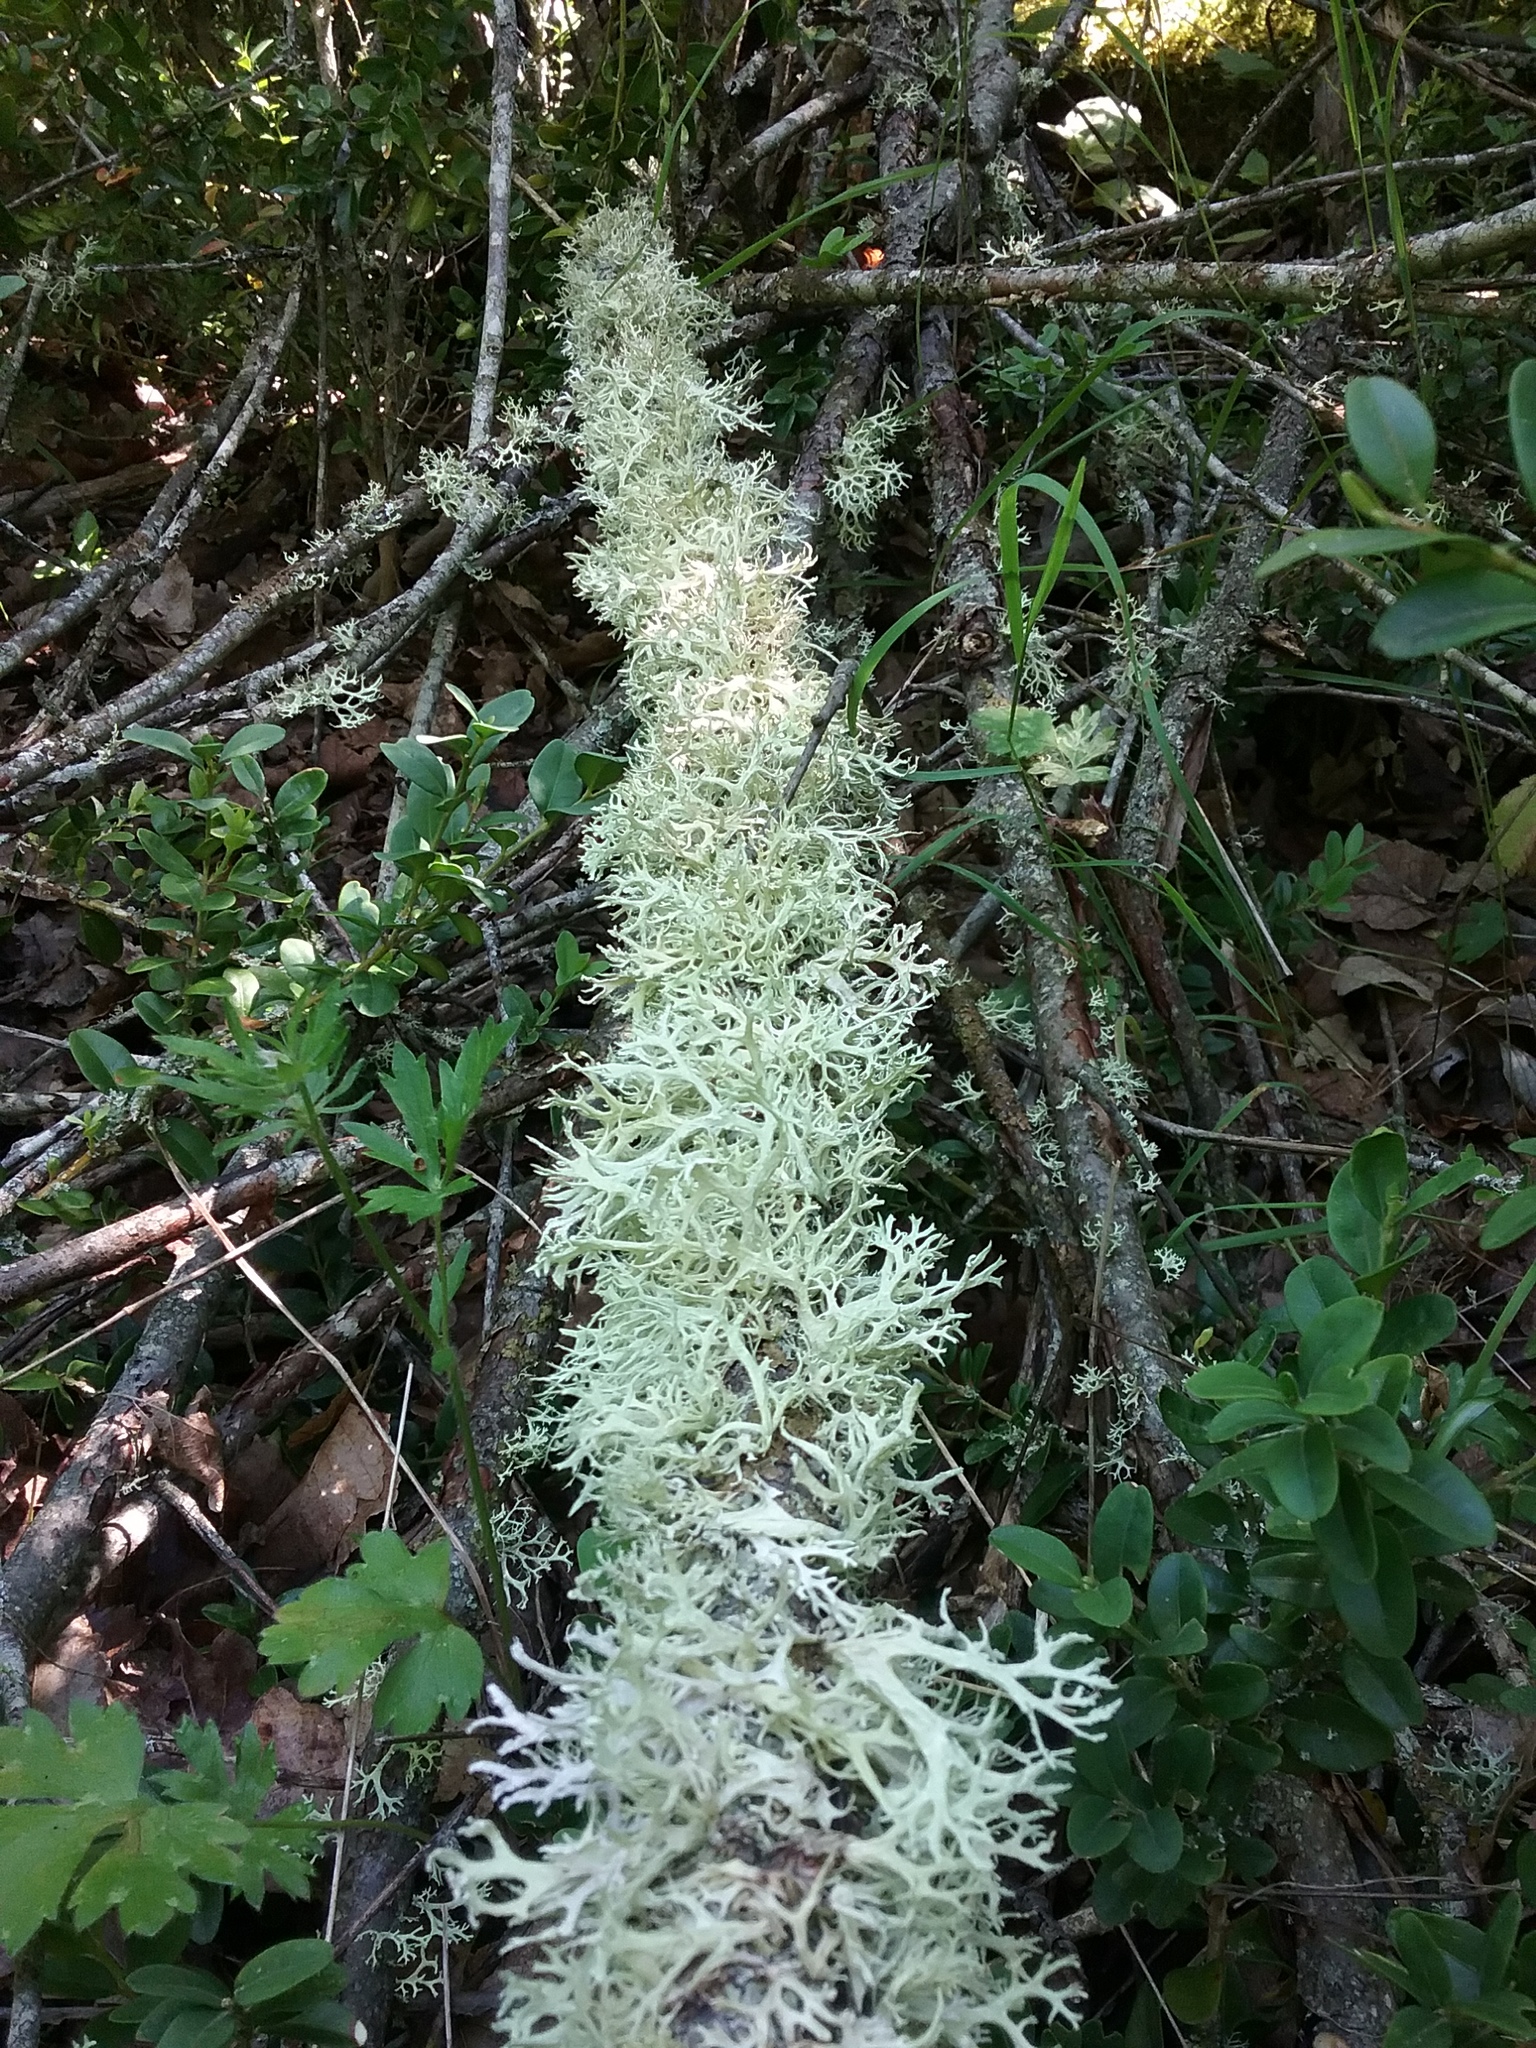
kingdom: Fungi
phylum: Ascomycota
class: Lecanoromycetes
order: Lecanorales
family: Parmeliaceae
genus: Evernia
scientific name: Evernia prunastri
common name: Oak moss
